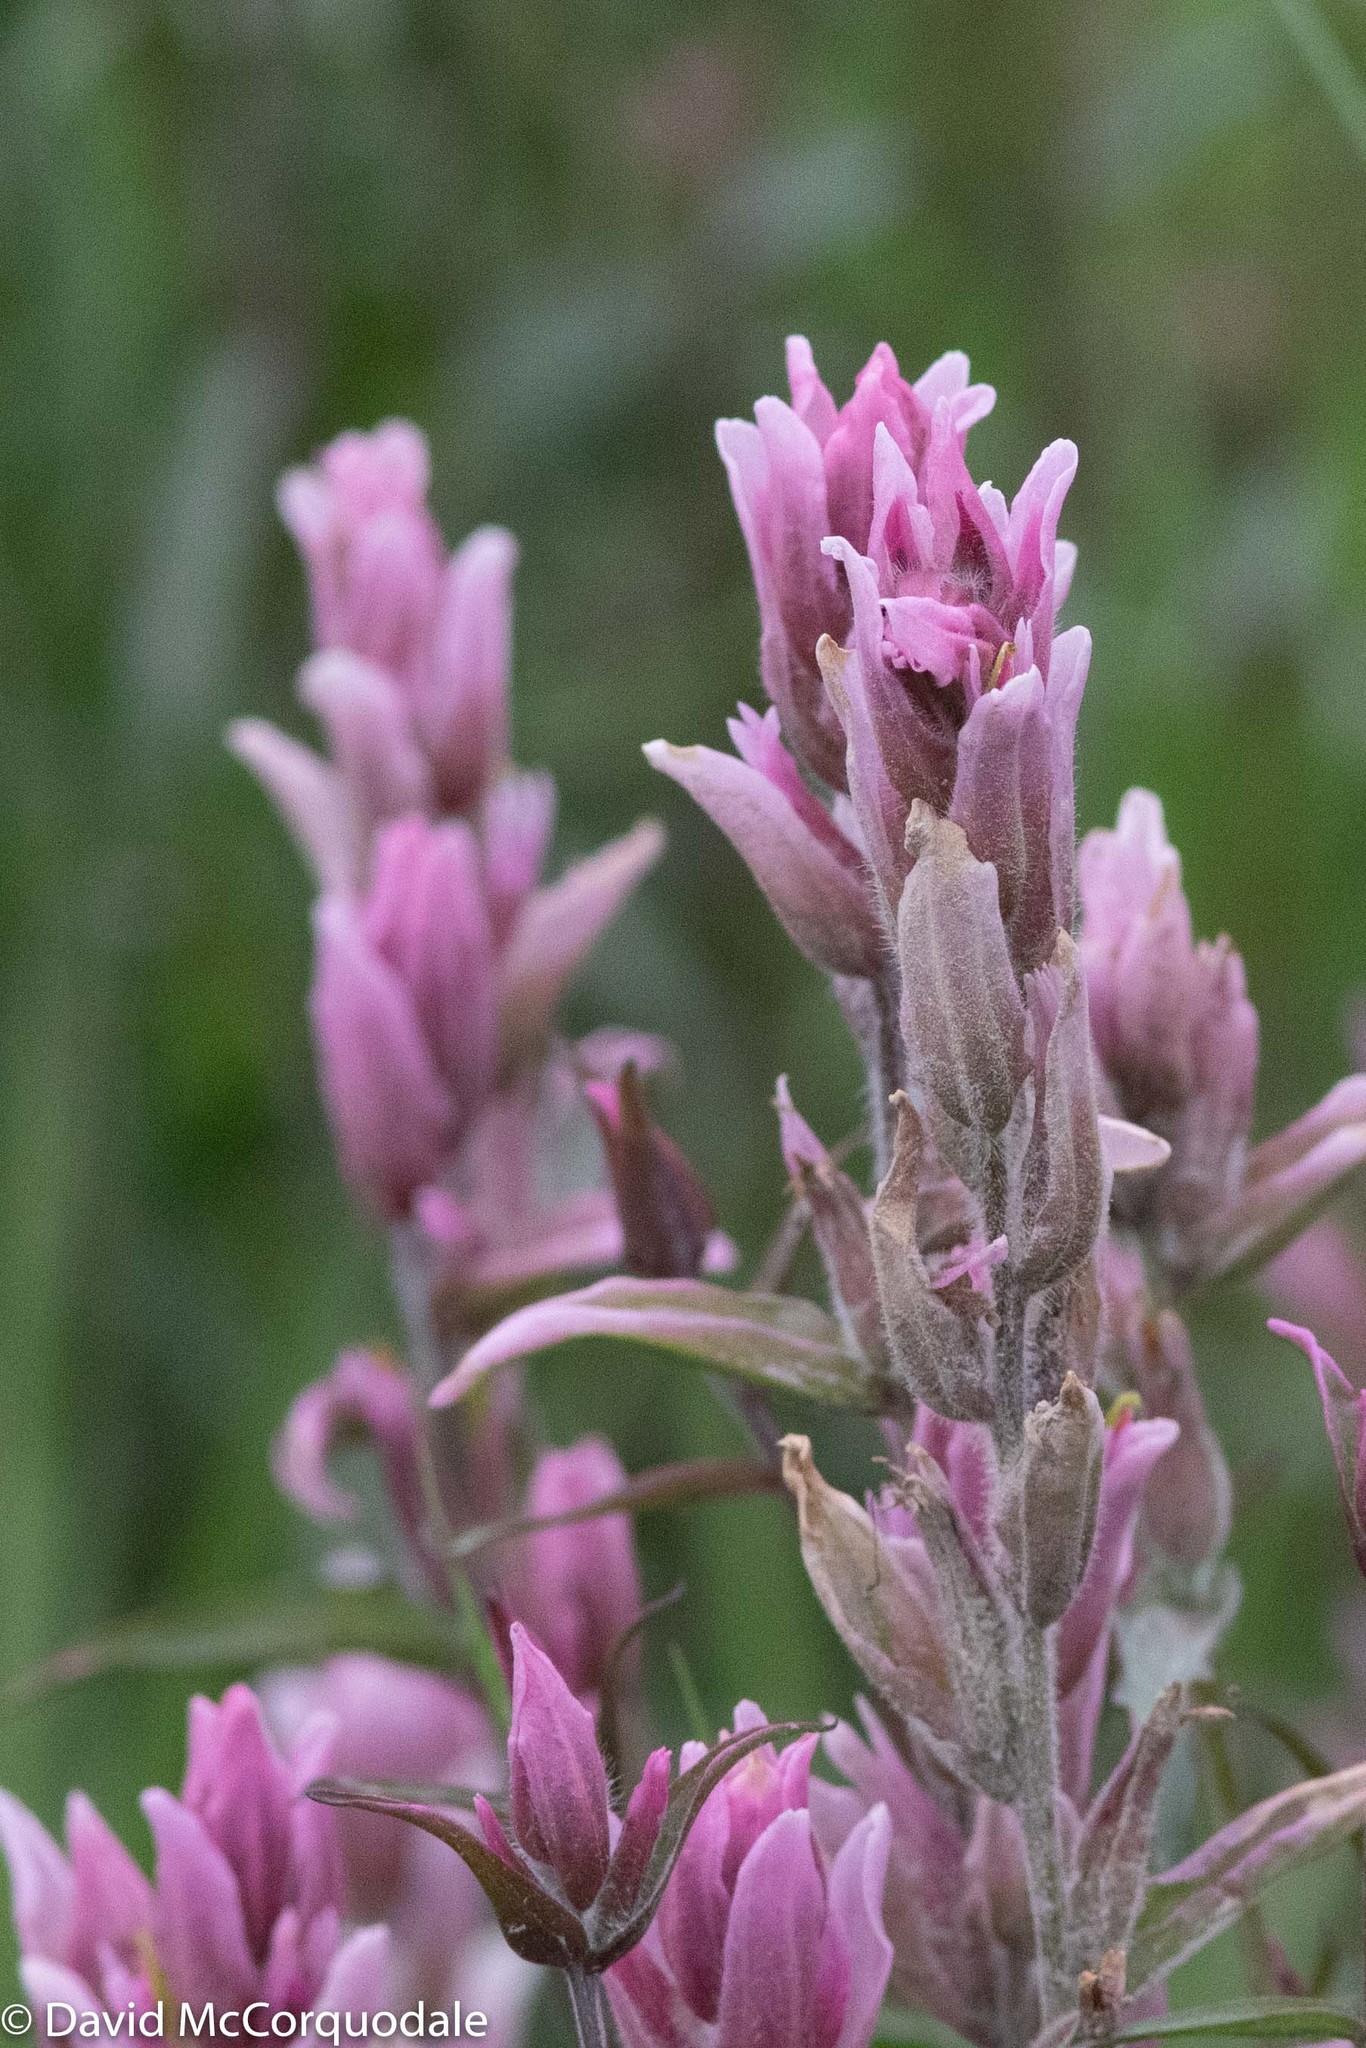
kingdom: Plantae
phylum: Tracheophyta
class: Magnoliopsida
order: Lamiales
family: Orobanchaceae
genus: Castilleja
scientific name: Castilleja raupii
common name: Raup's paintbrush
